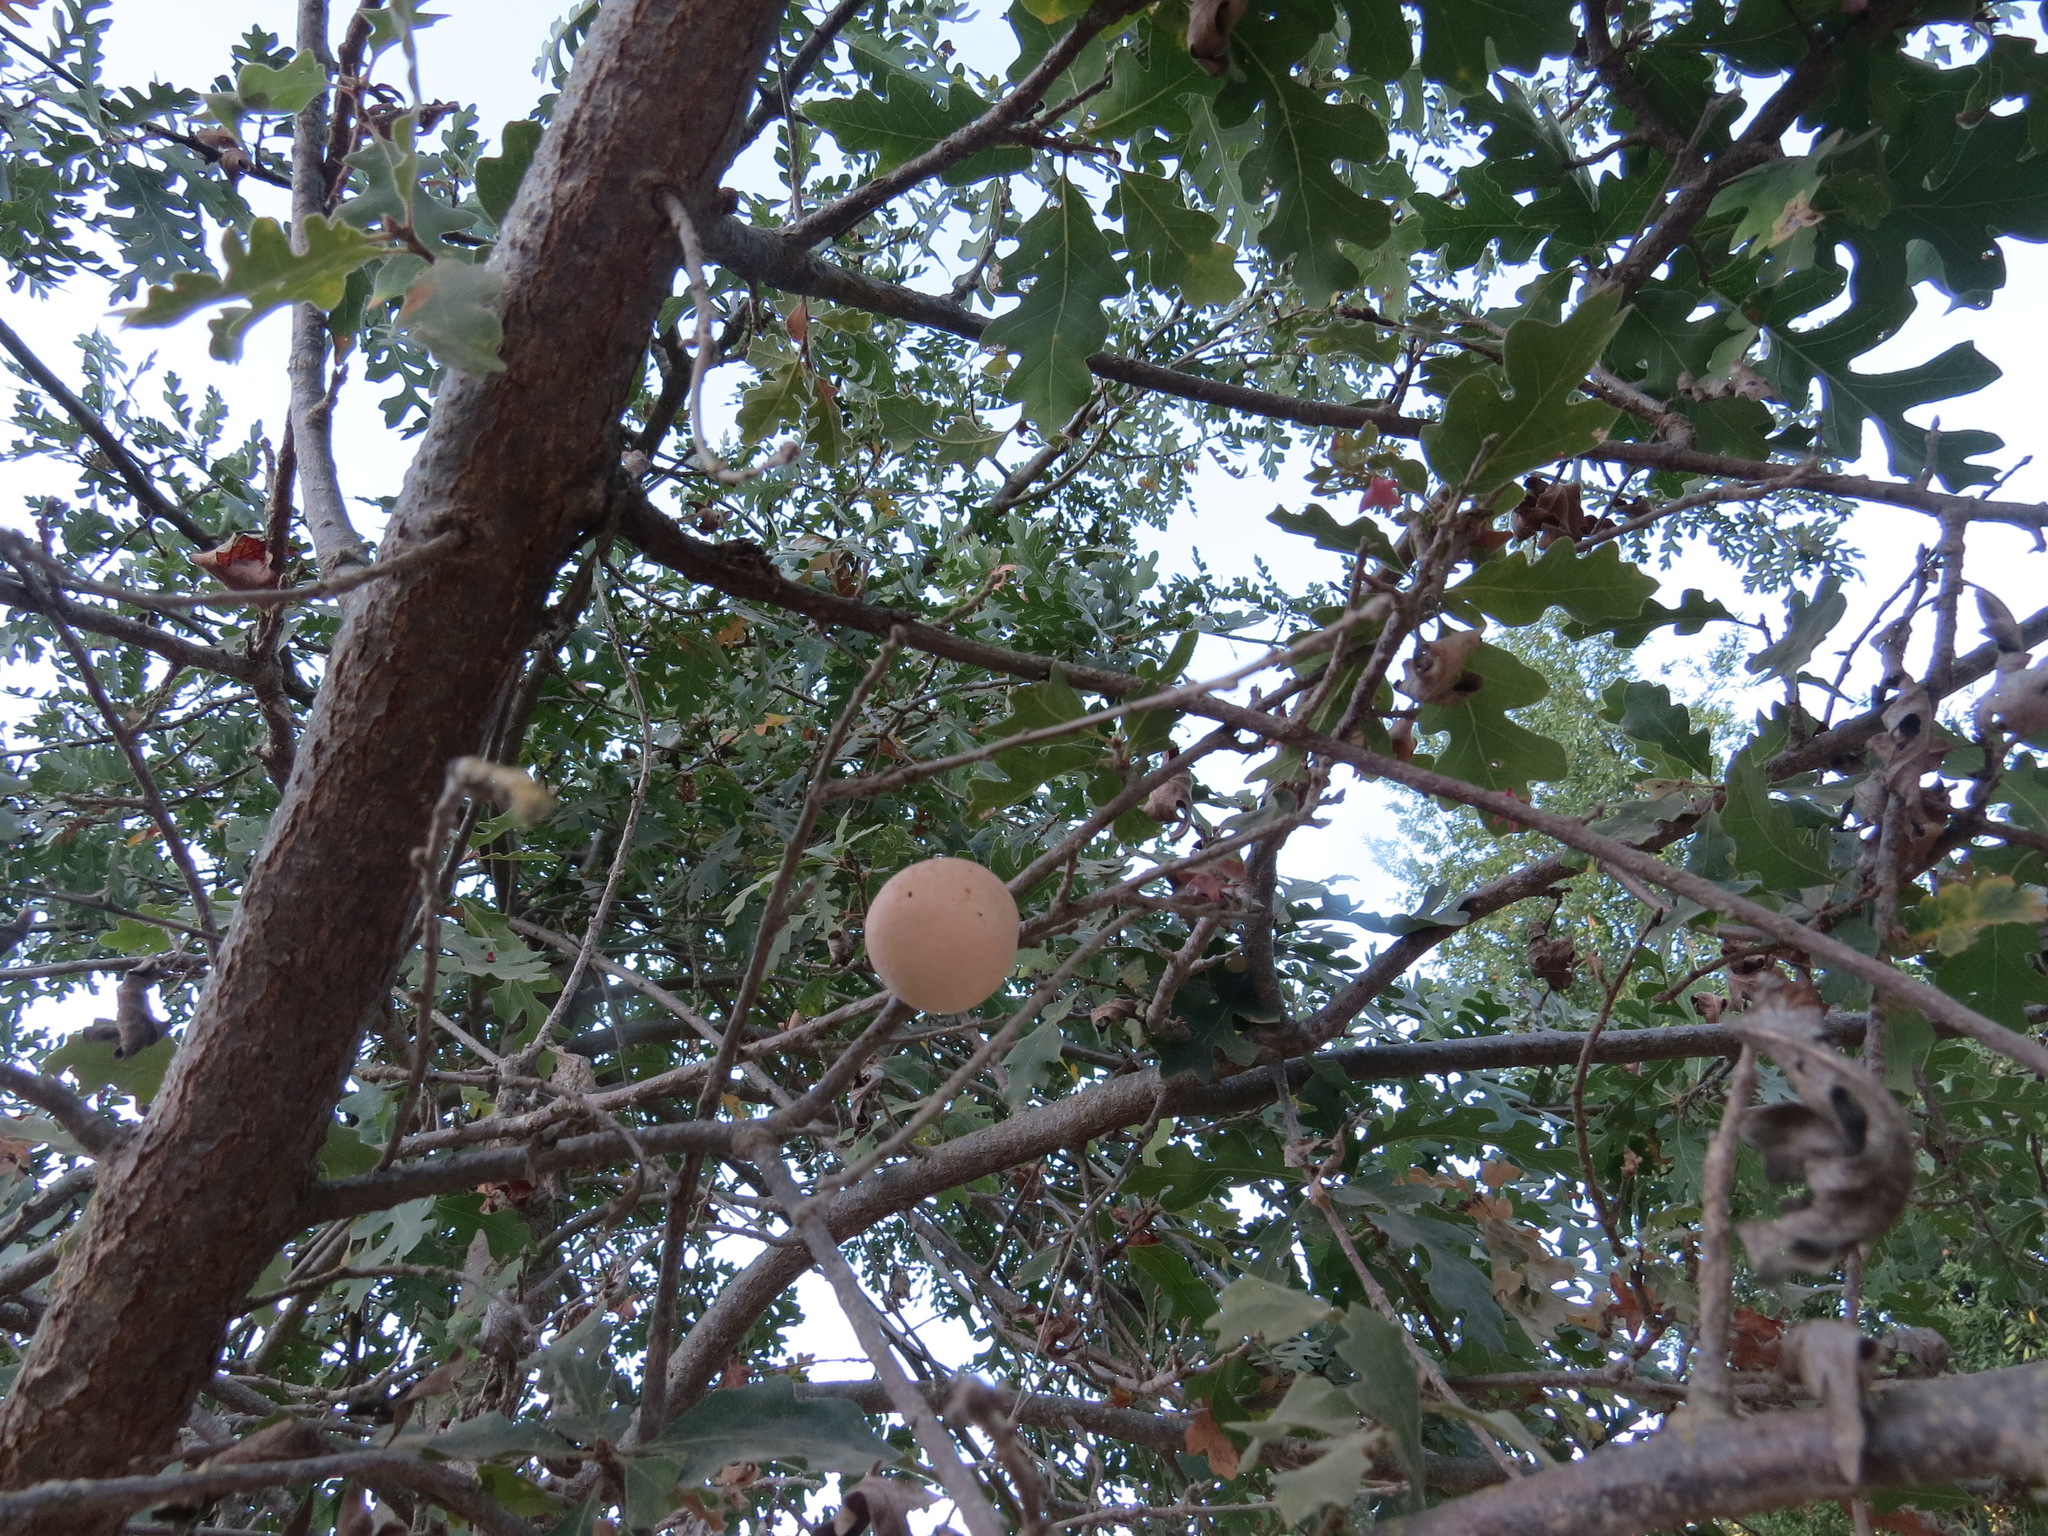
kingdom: Animalia
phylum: Arthropoda
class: Insecta
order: Hymenoptera
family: Cynipidae
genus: Andricus
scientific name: Andricus quercuscalifornicus
